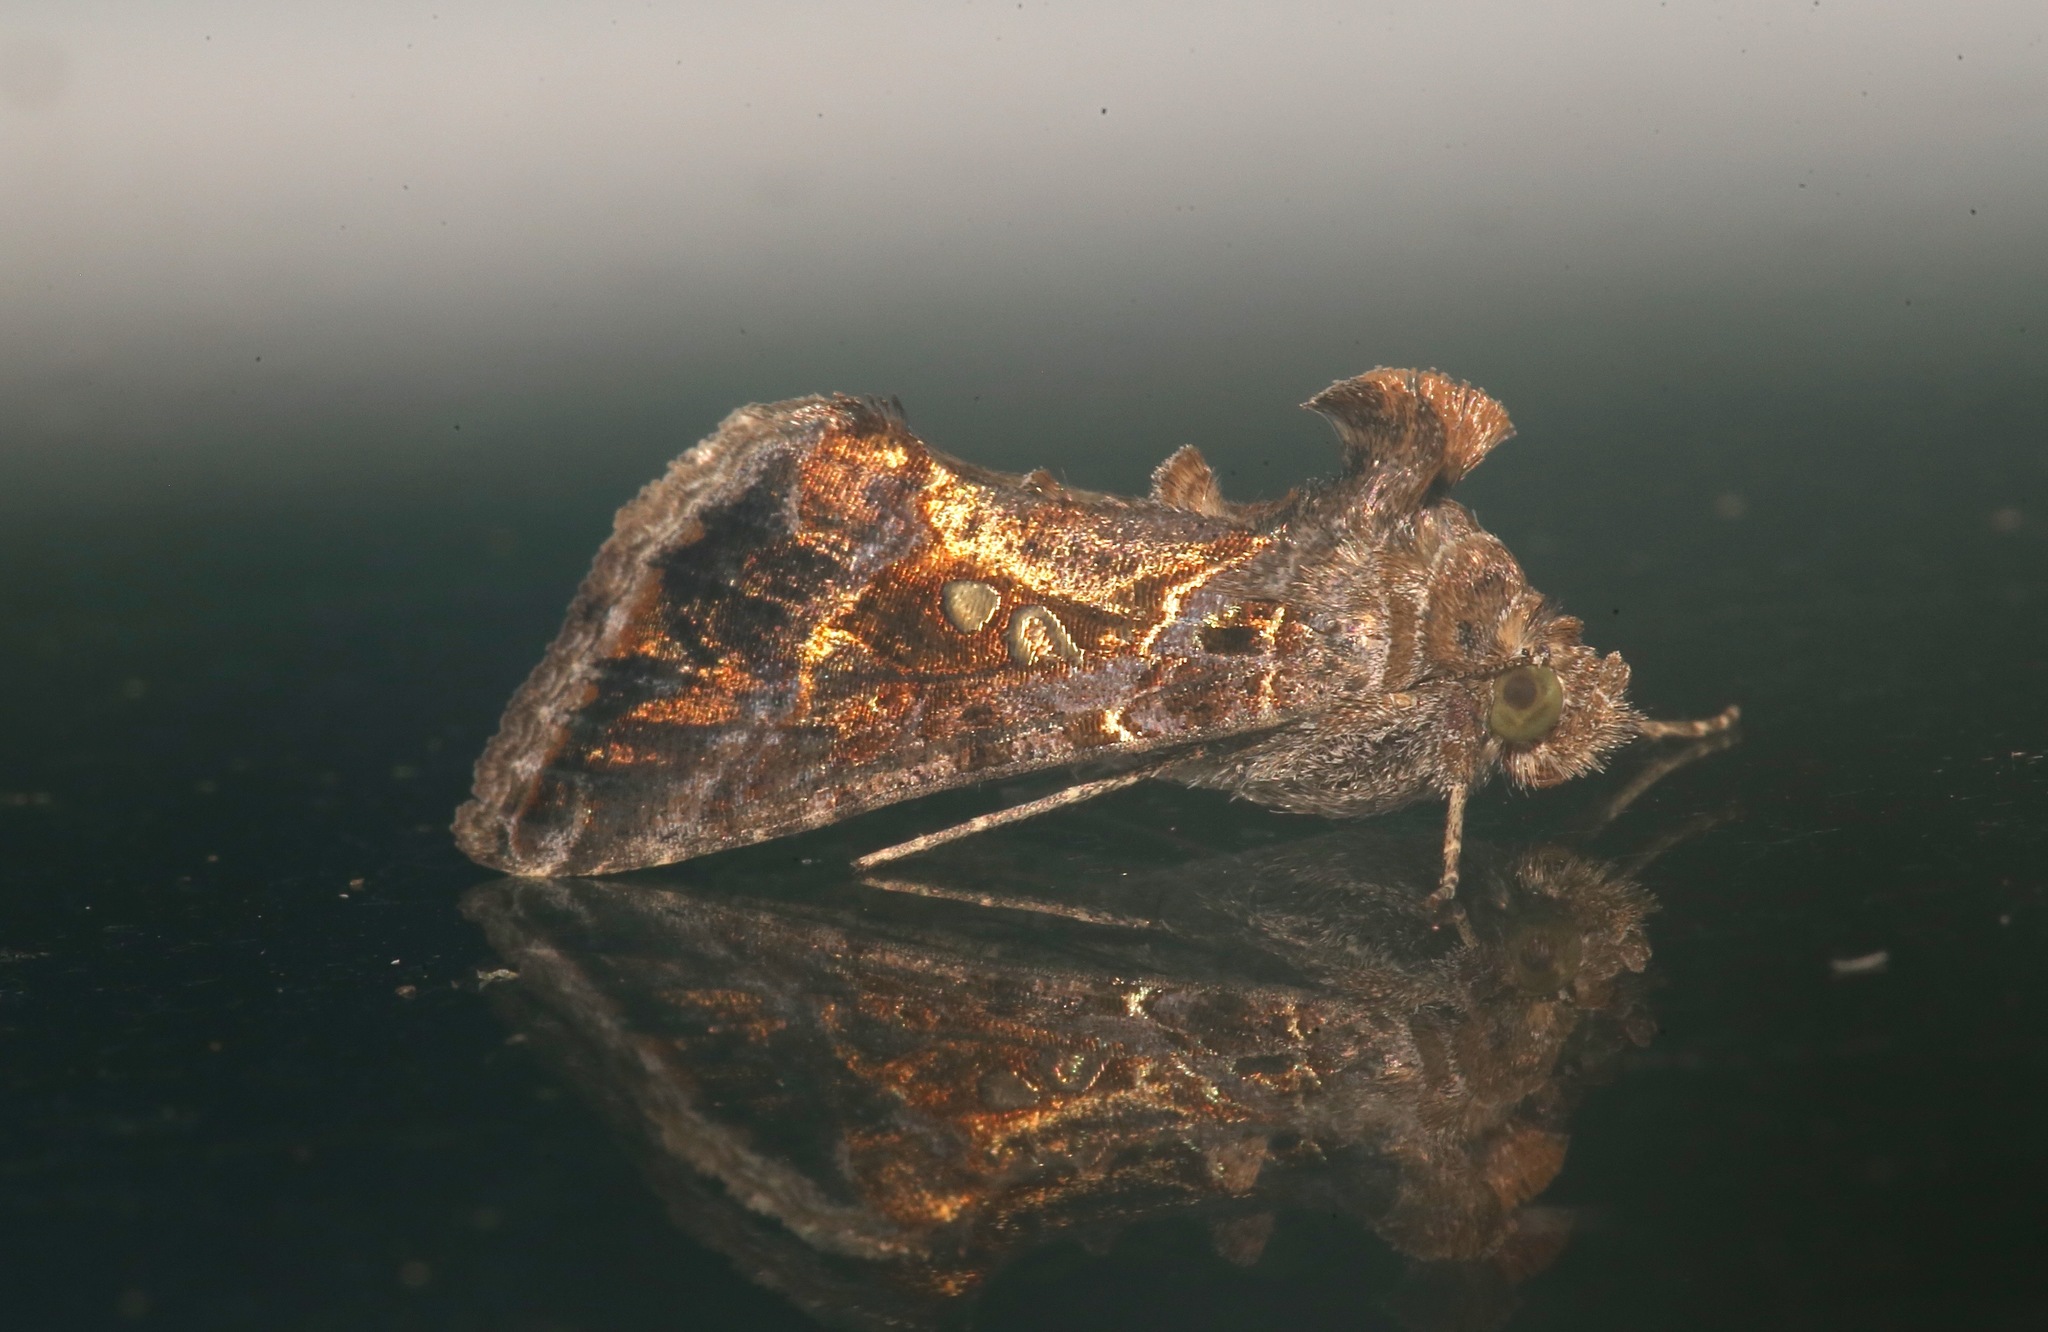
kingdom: Animalia
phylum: Arthropoda
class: Insecta
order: Lepidoptera
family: Noctuidae
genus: Chrysodeixis
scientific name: Chrysodeixis includens
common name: Cutworm moth
